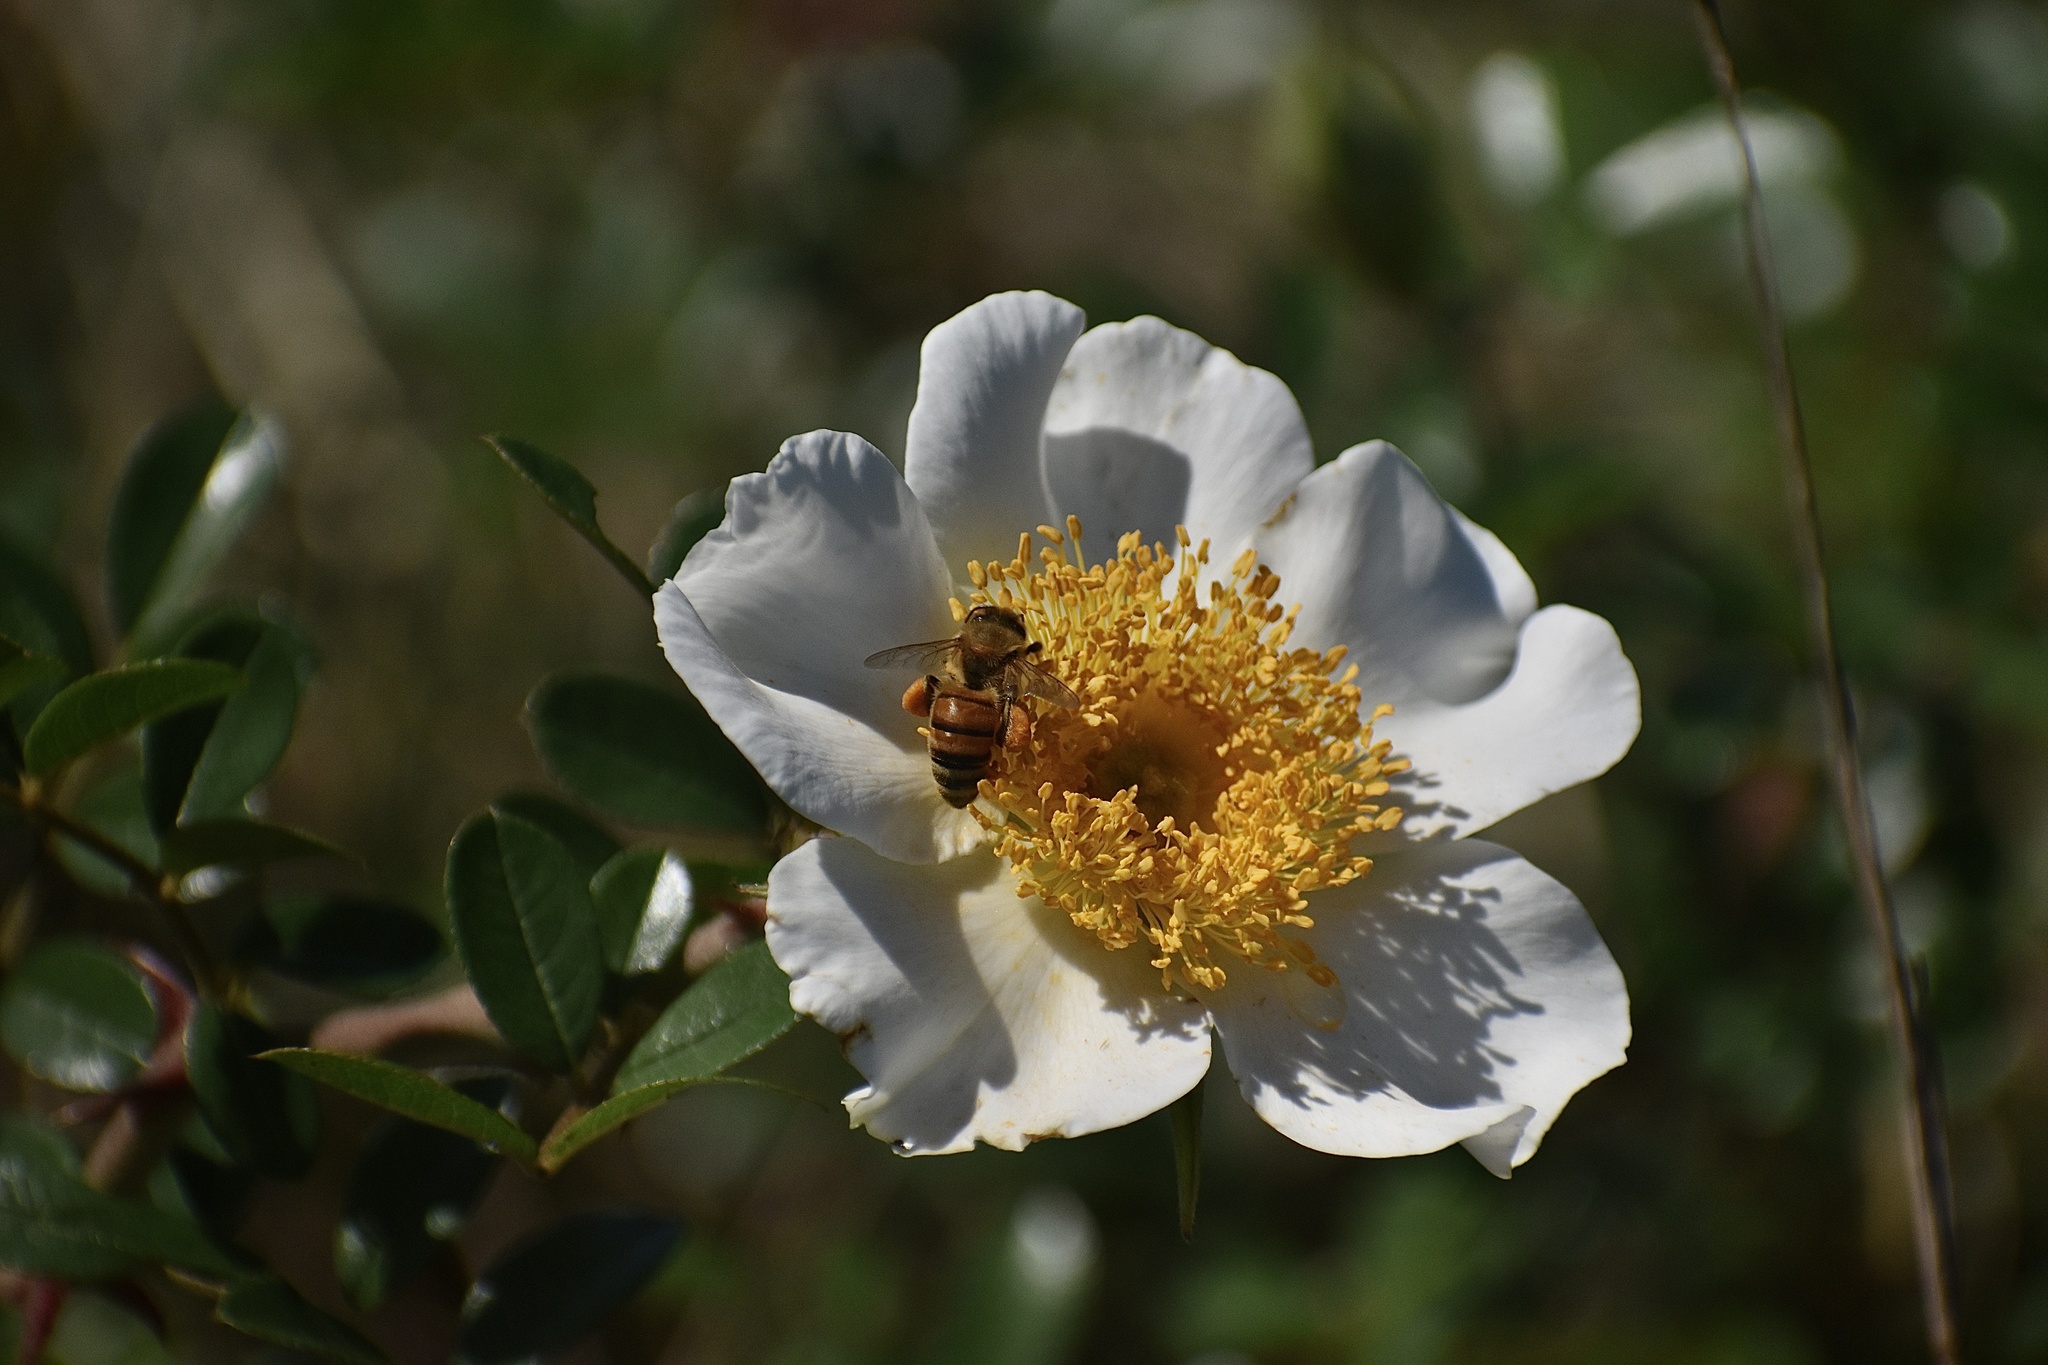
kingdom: Plantae
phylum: Tracheophyta
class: Magnoliopsida
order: Rosales
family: Rosaceae
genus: Rosa
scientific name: Rosa bracteata
